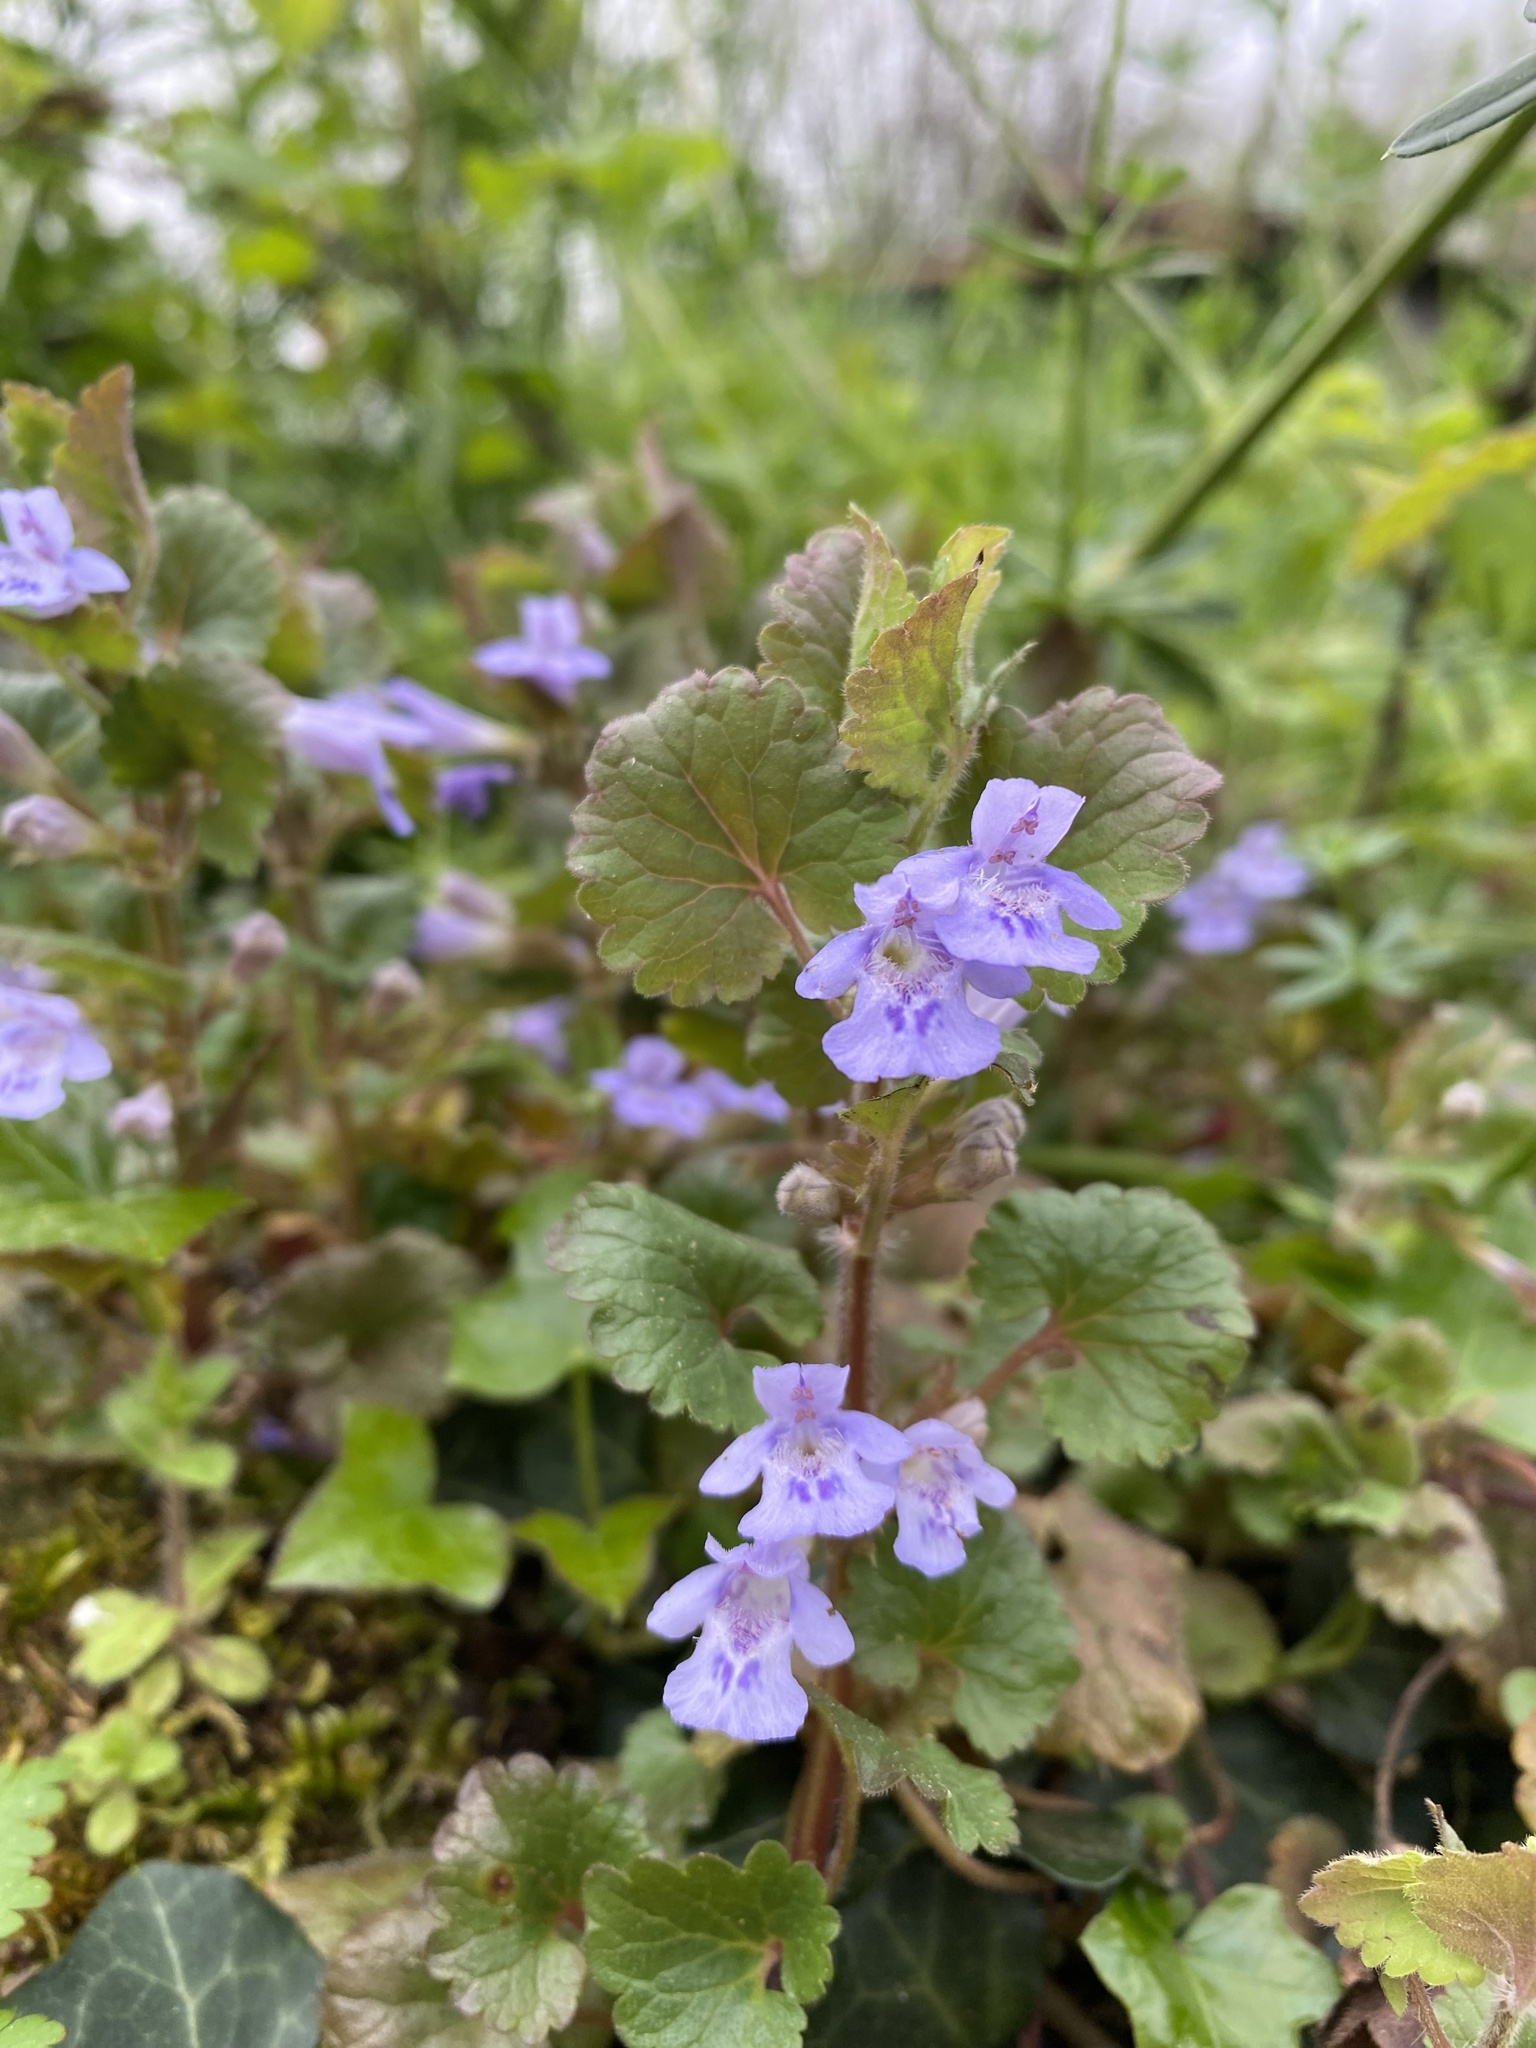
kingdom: Plantae
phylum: Tracheophyta
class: Magnoliopsida
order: Lamiales
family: Lamiaceae
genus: Glechoma
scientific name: Glechoma hederacea
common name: Ground ivy
